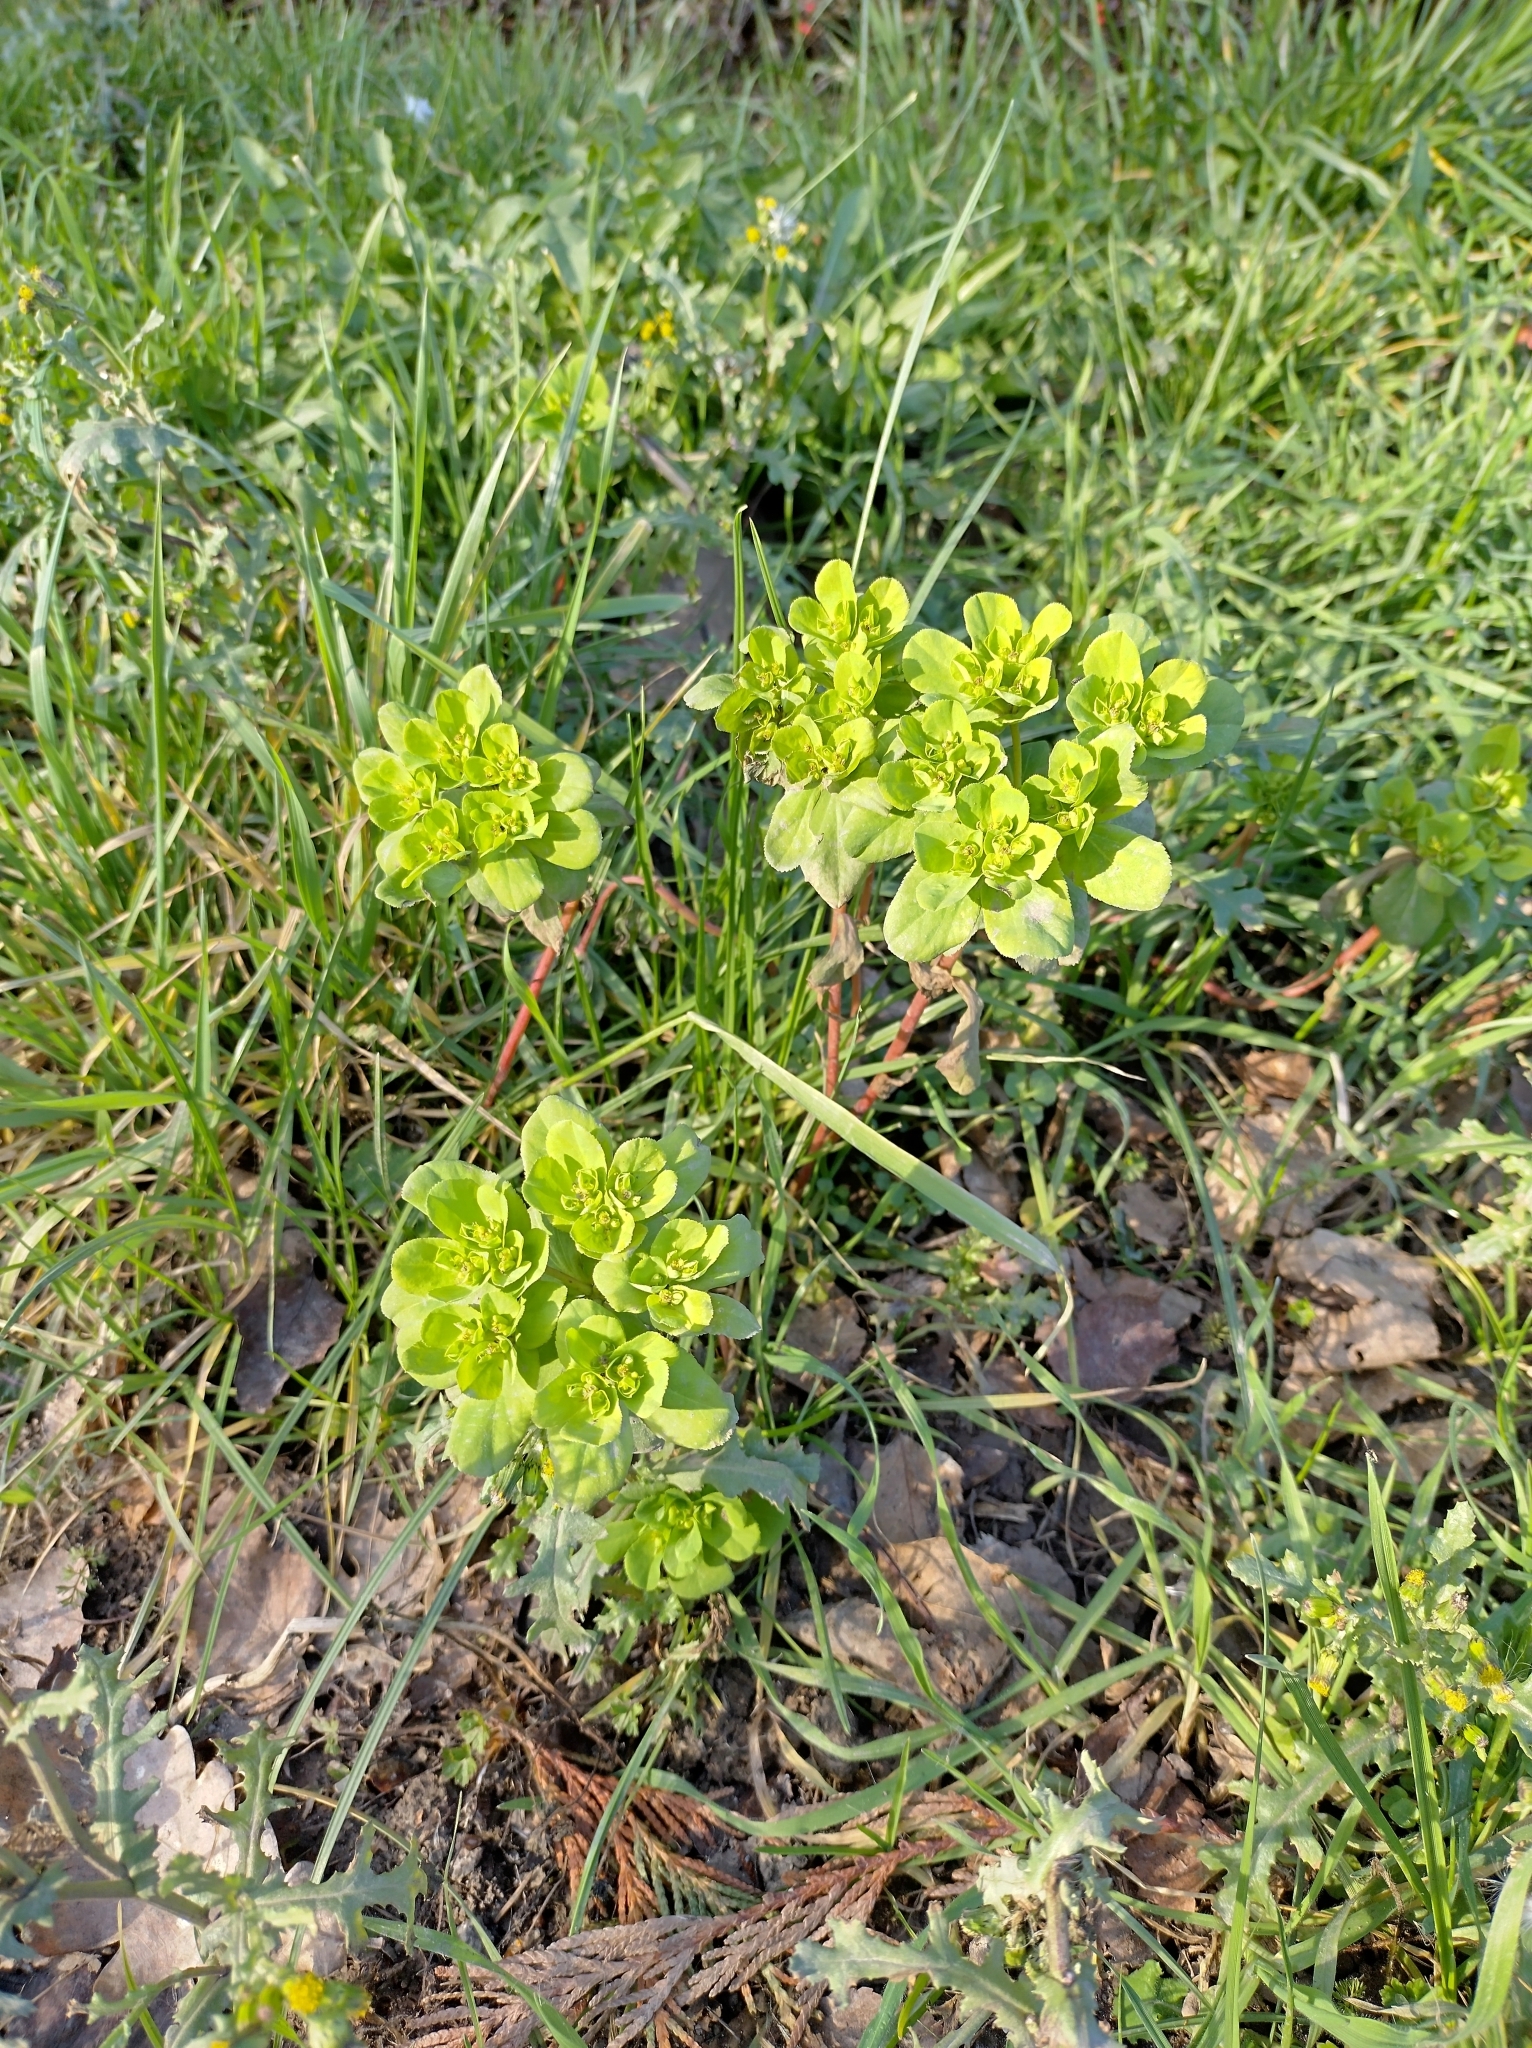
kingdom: Plantae
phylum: Tracheophyta
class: Magnoliopsida
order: Malpighiales
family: Euphorbiaceae
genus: Euphorbia
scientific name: Euphorbia helioscopia
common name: Sun spurge
